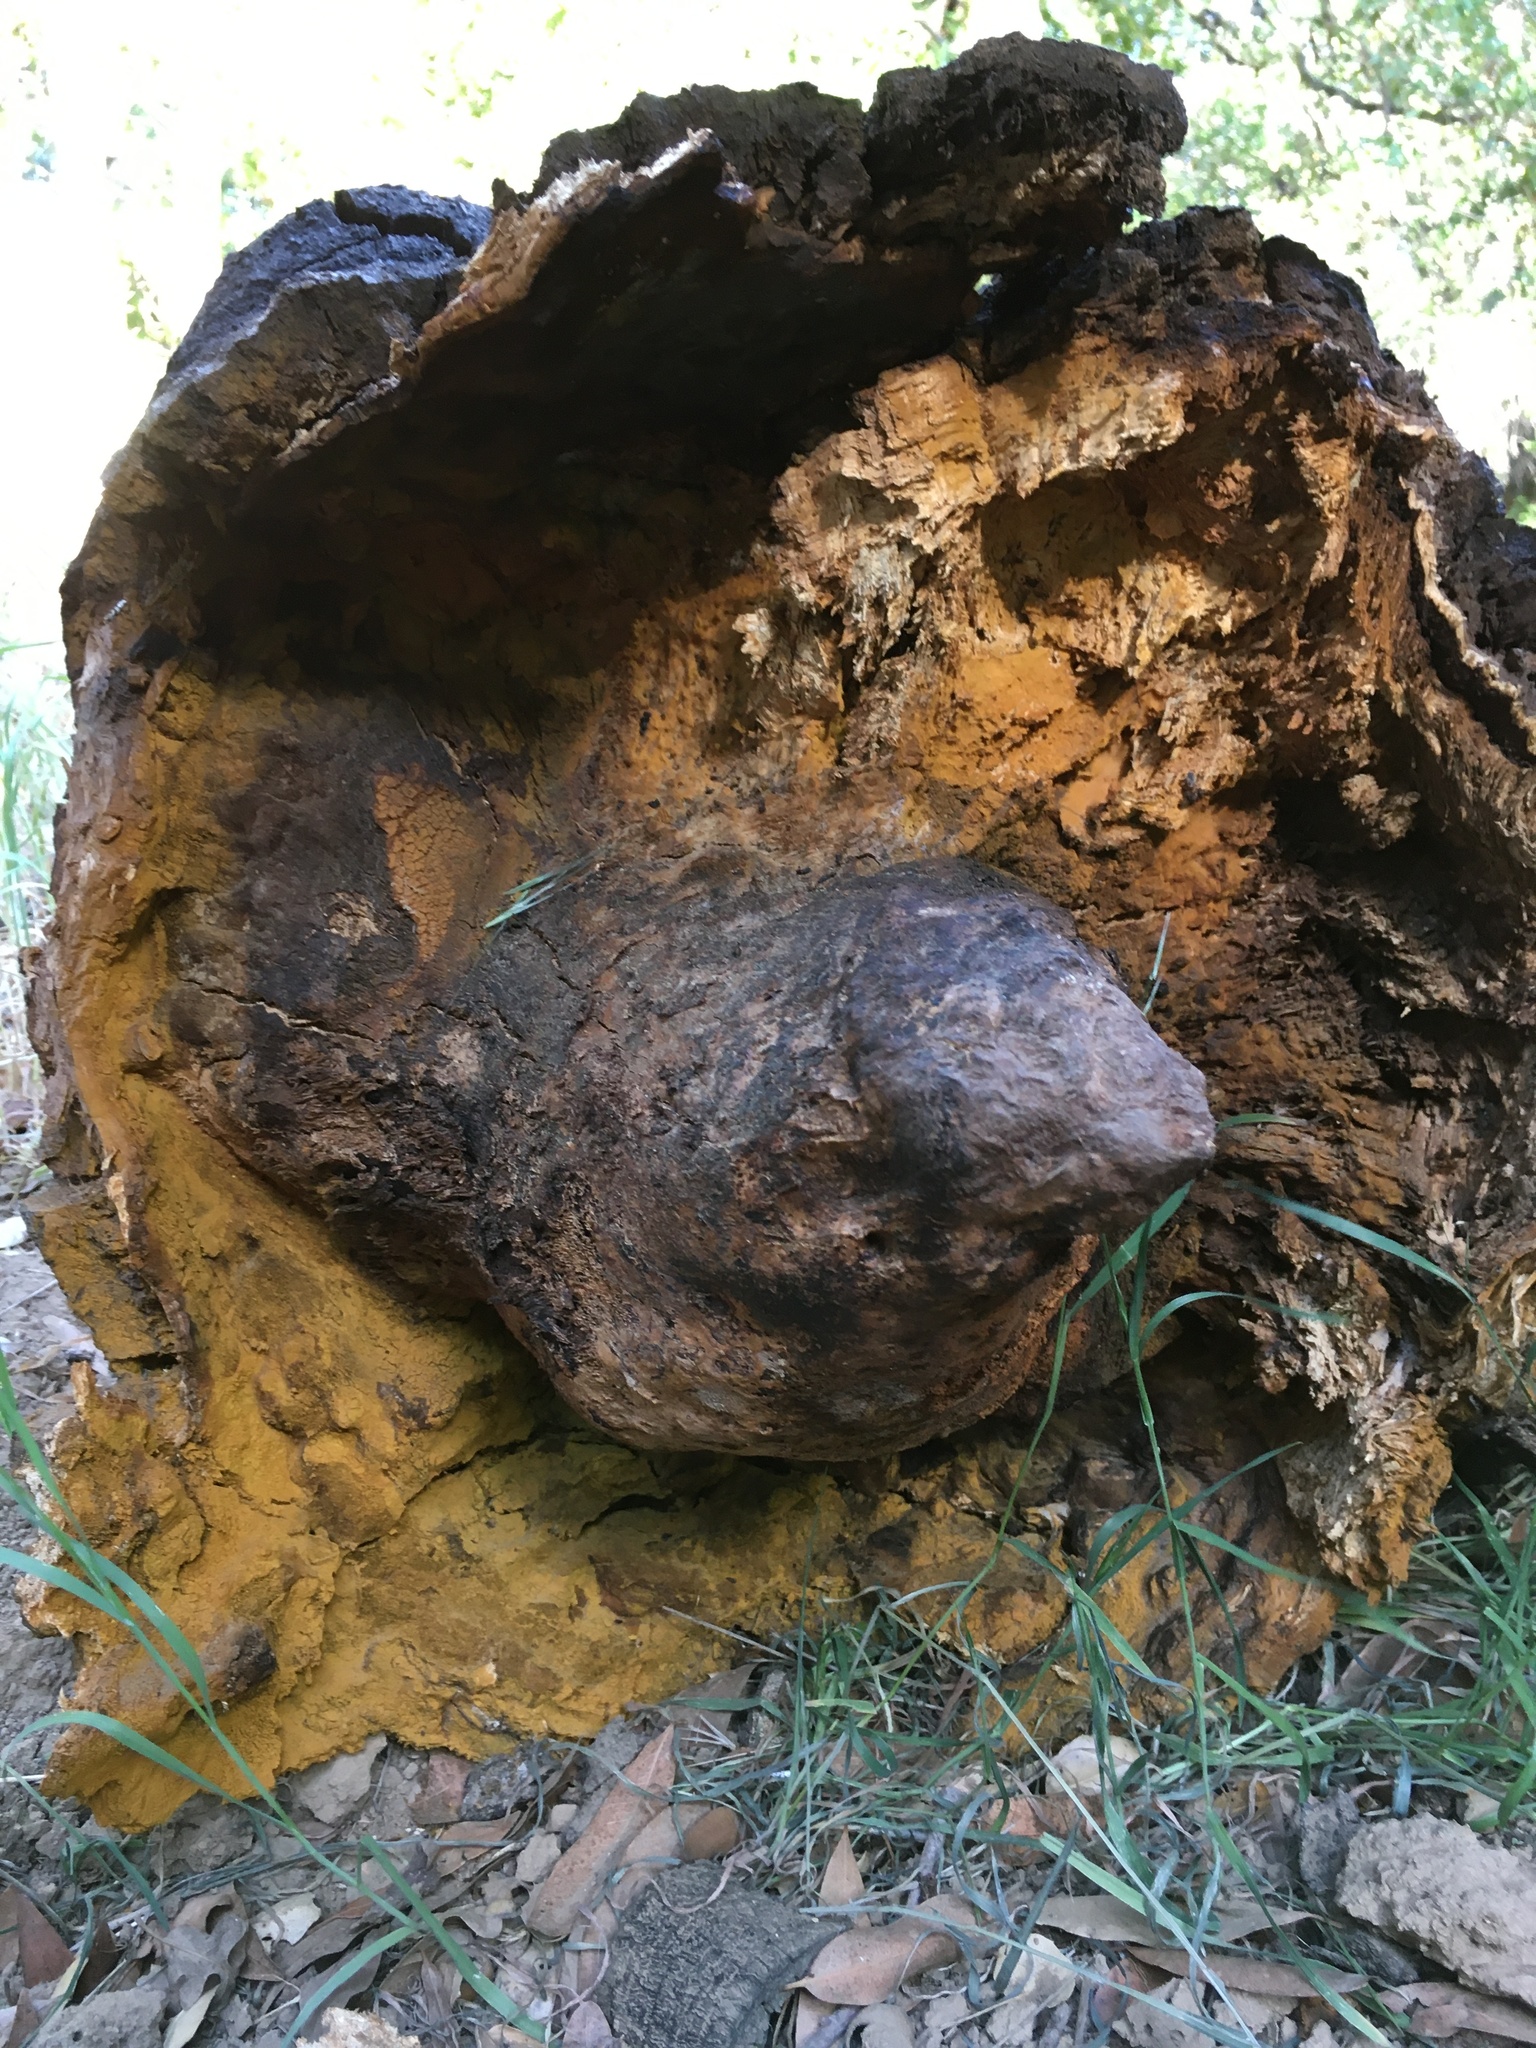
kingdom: Plantae
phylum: Tracheophyta
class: Magnoliopsida
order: Fagales
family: Fagaceae
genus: Quercus
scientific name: Quercus agrifolia
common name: California live oak
